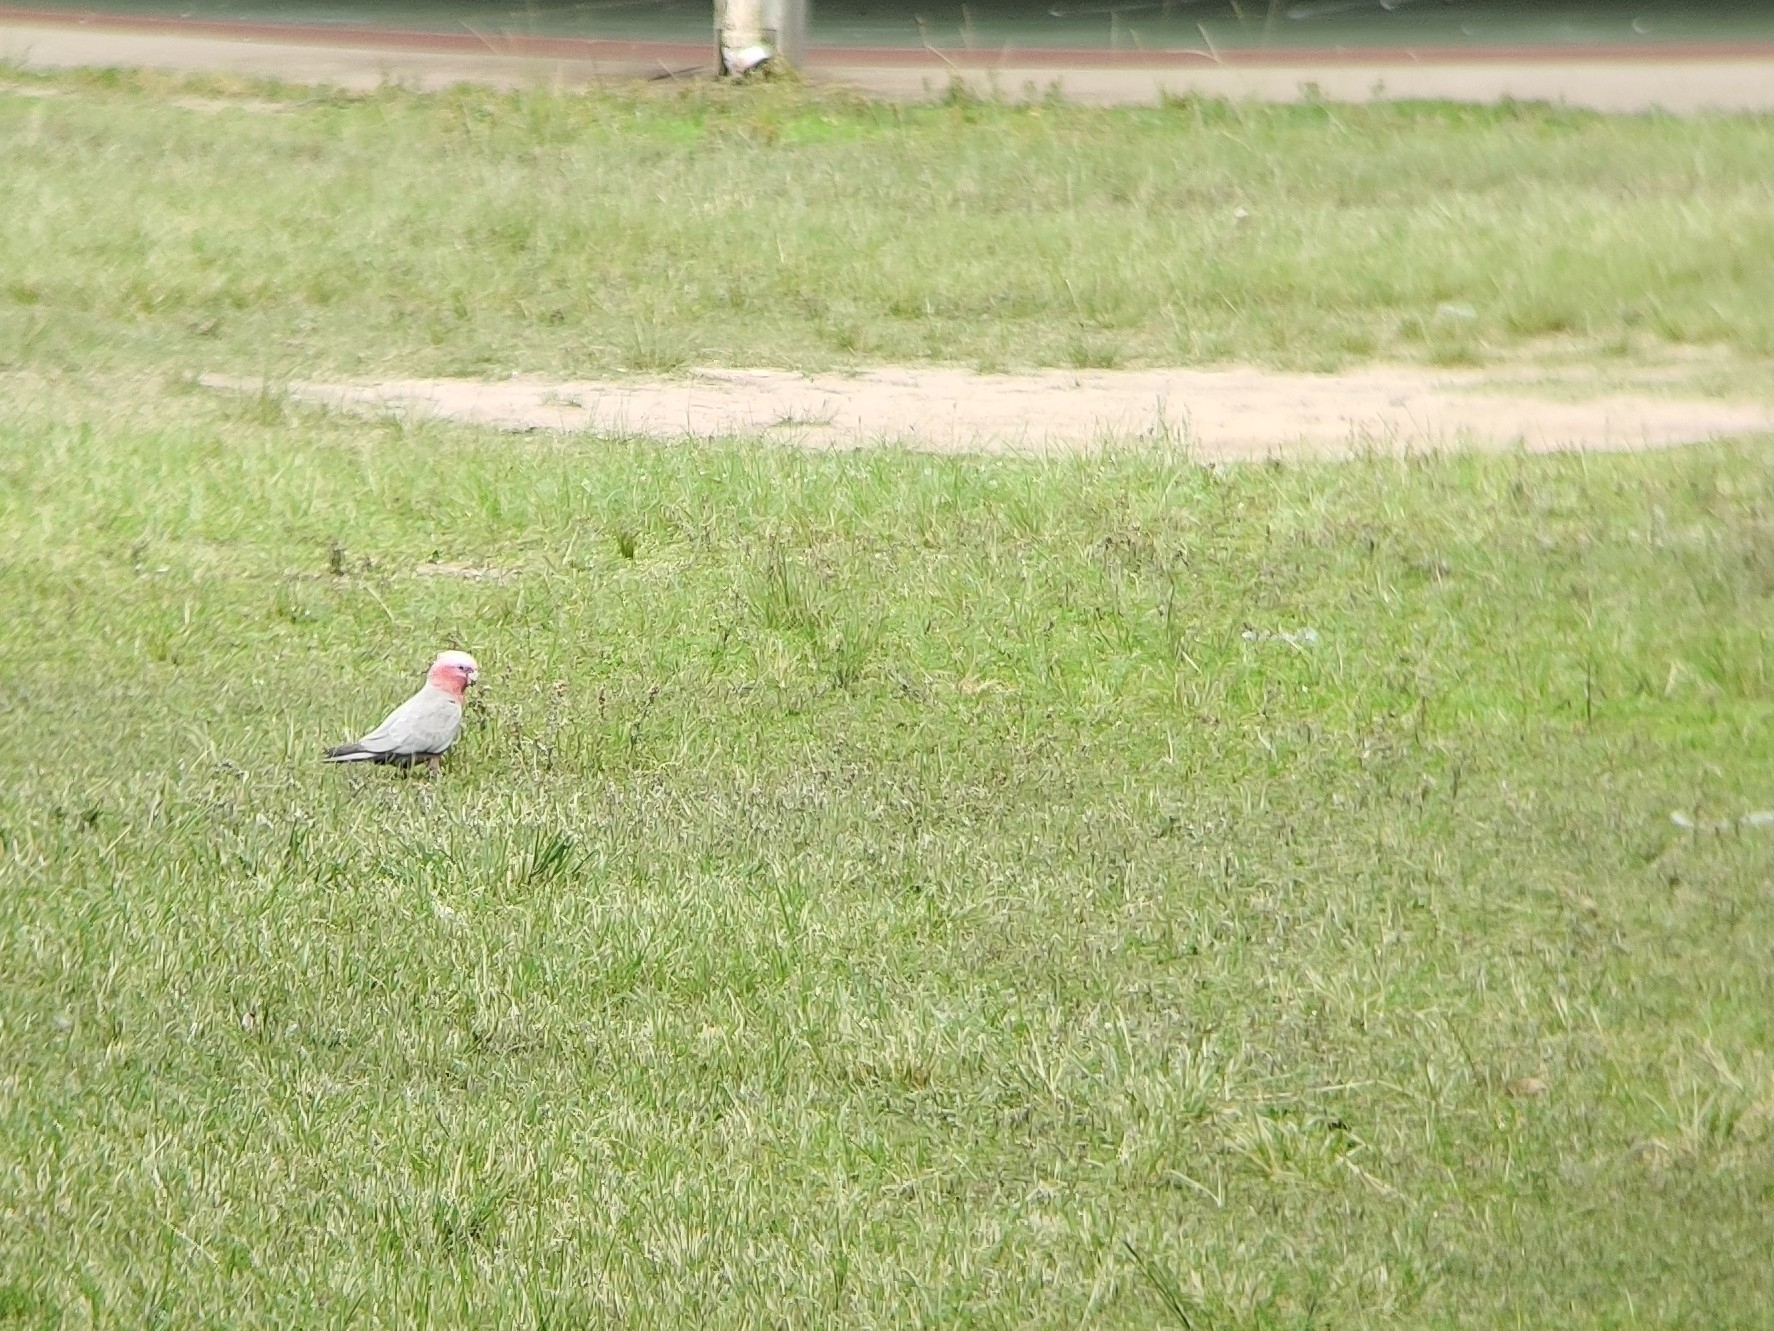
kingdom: Animalia
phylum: Chordata
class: Aves
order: Psittaciformes
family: Psittacidae
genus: Eolophus
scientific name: Eolophus roseicapilla
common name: Galah
